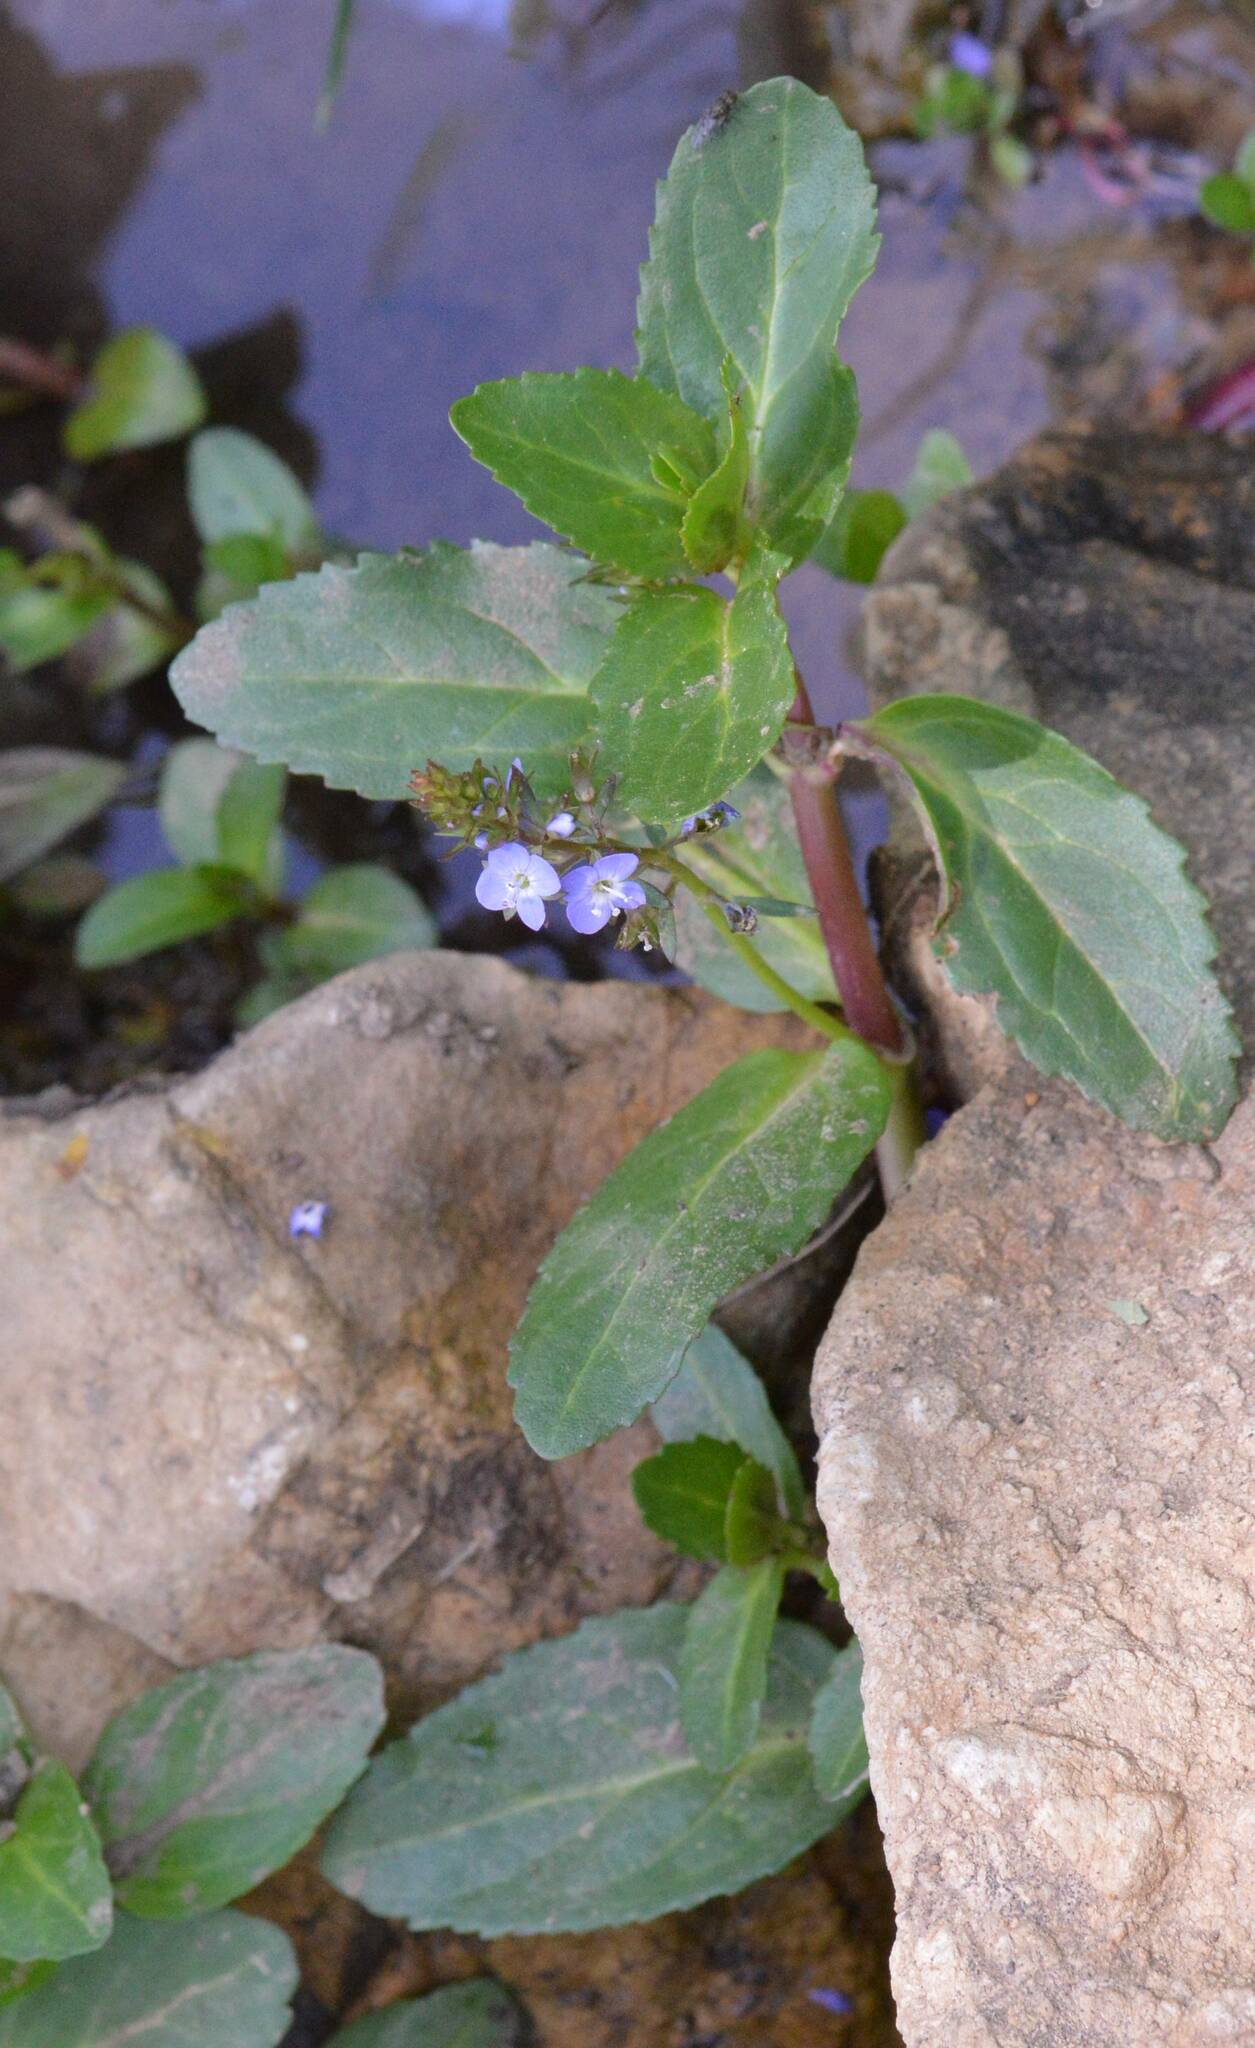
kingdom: Plantae
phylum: Tracheophyta
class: Magnoliopsida
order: Lamiales
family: Plantaginaceae
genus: Veronica
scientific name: Veronica beccabunga
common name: Brooklime
